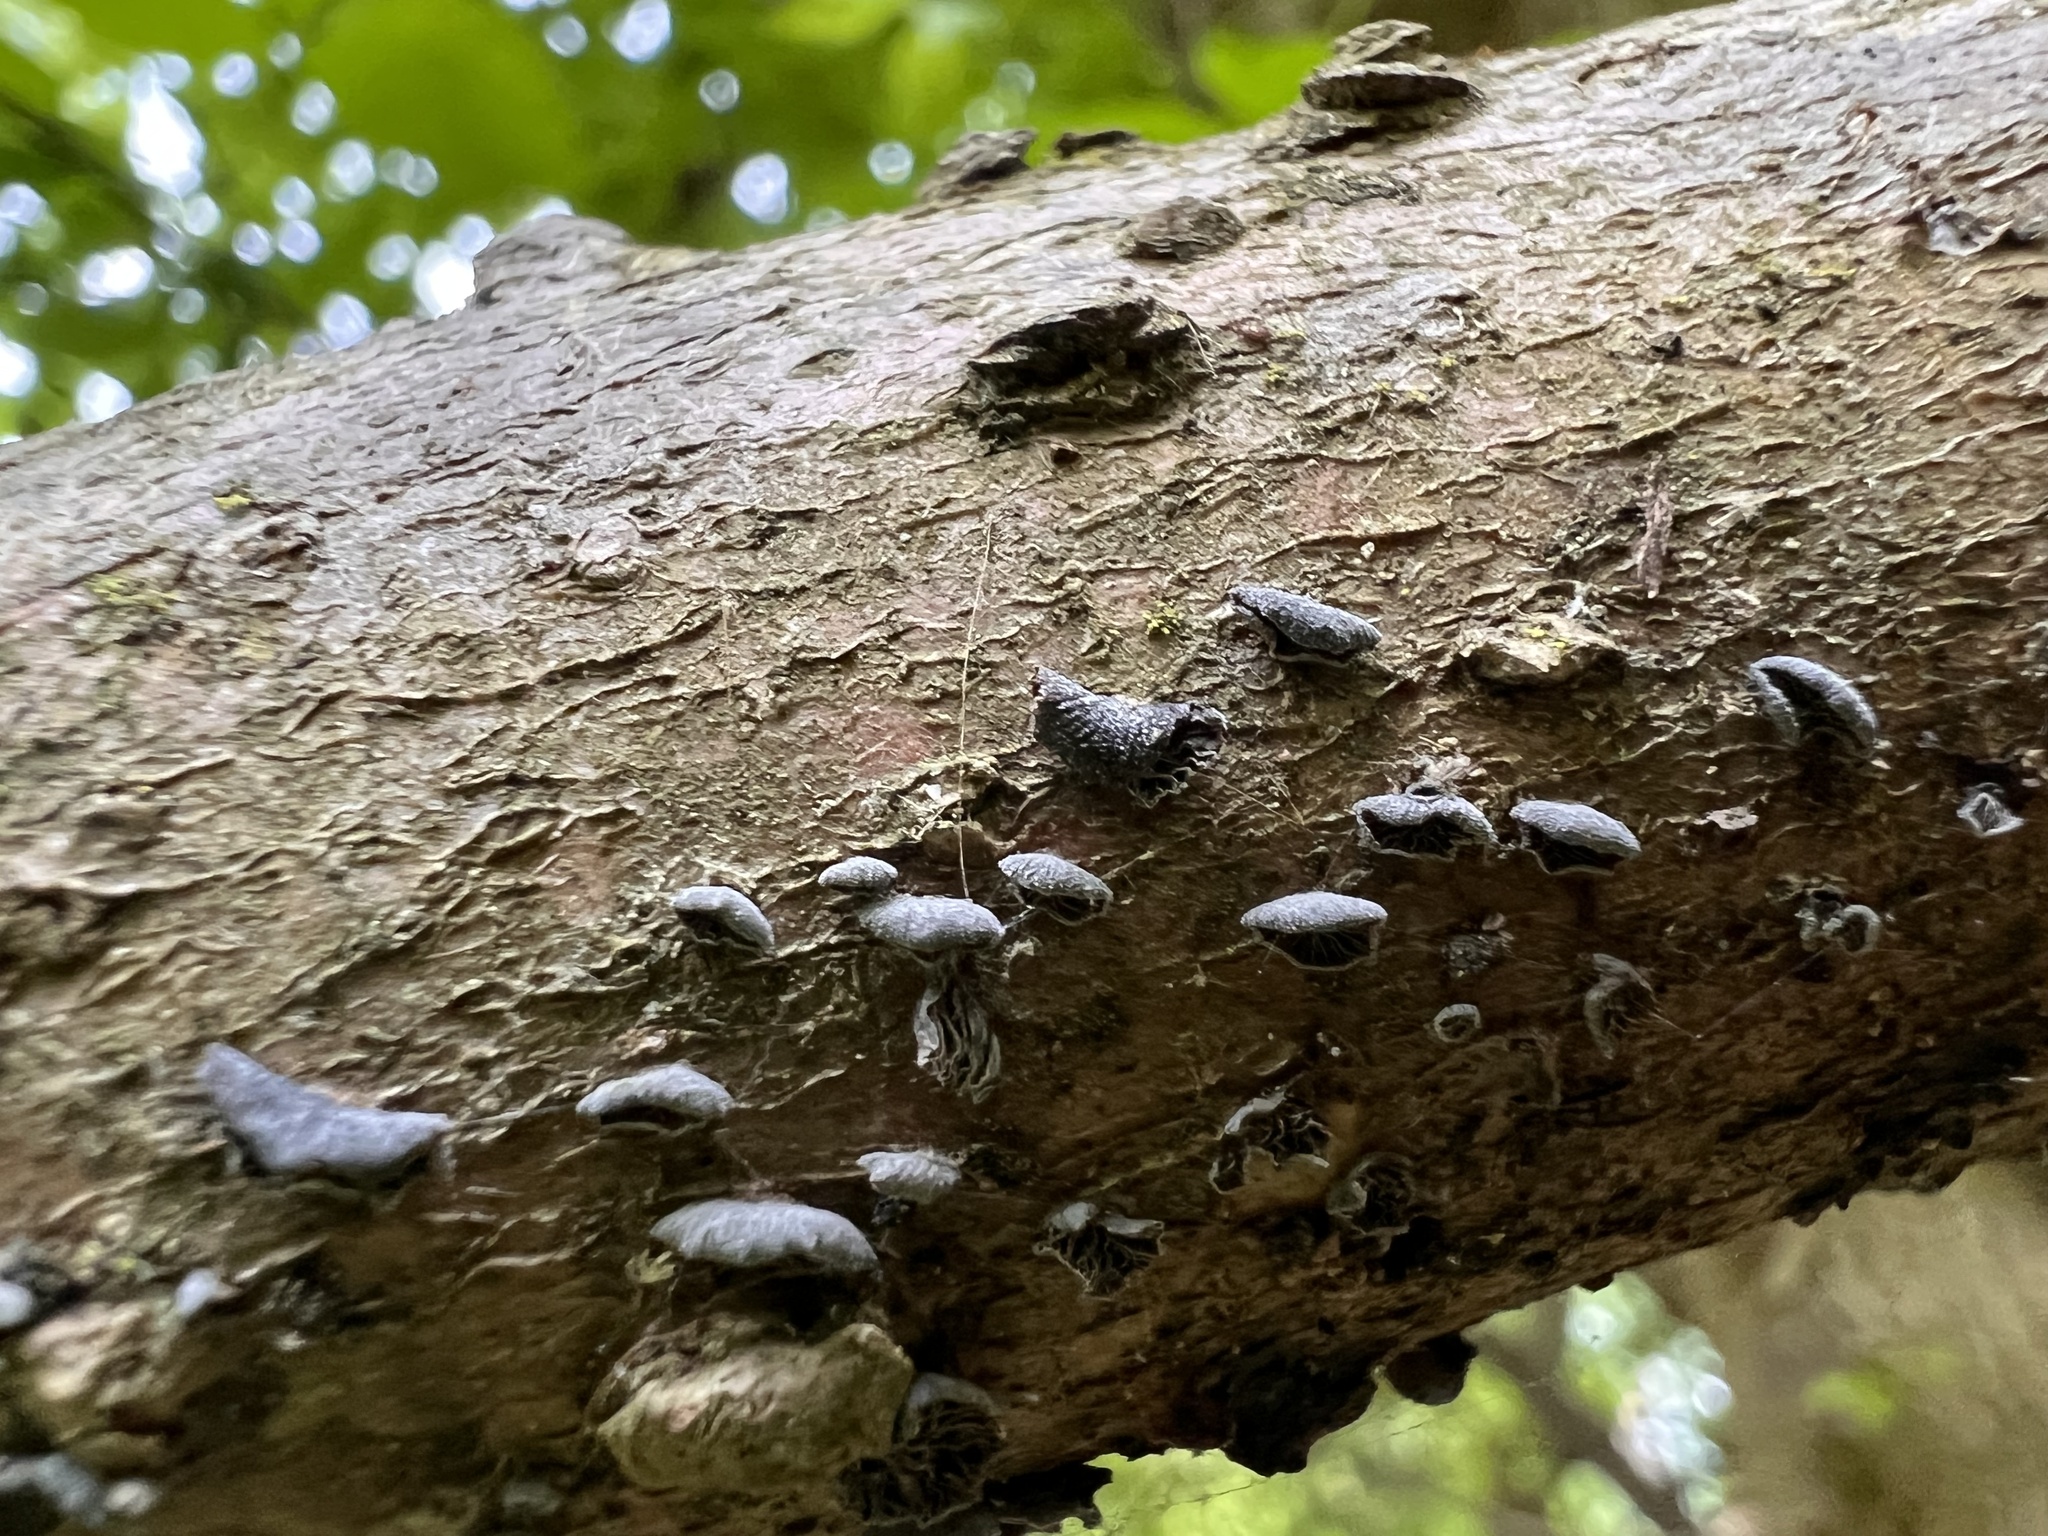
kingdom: Fungi
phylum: Basidiomycota
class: Agaricomycetes
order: Agaricales
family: Pleurotaceae
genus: Resupinatus
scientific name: Resupinatus applicatus
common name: Smoked oysterling
